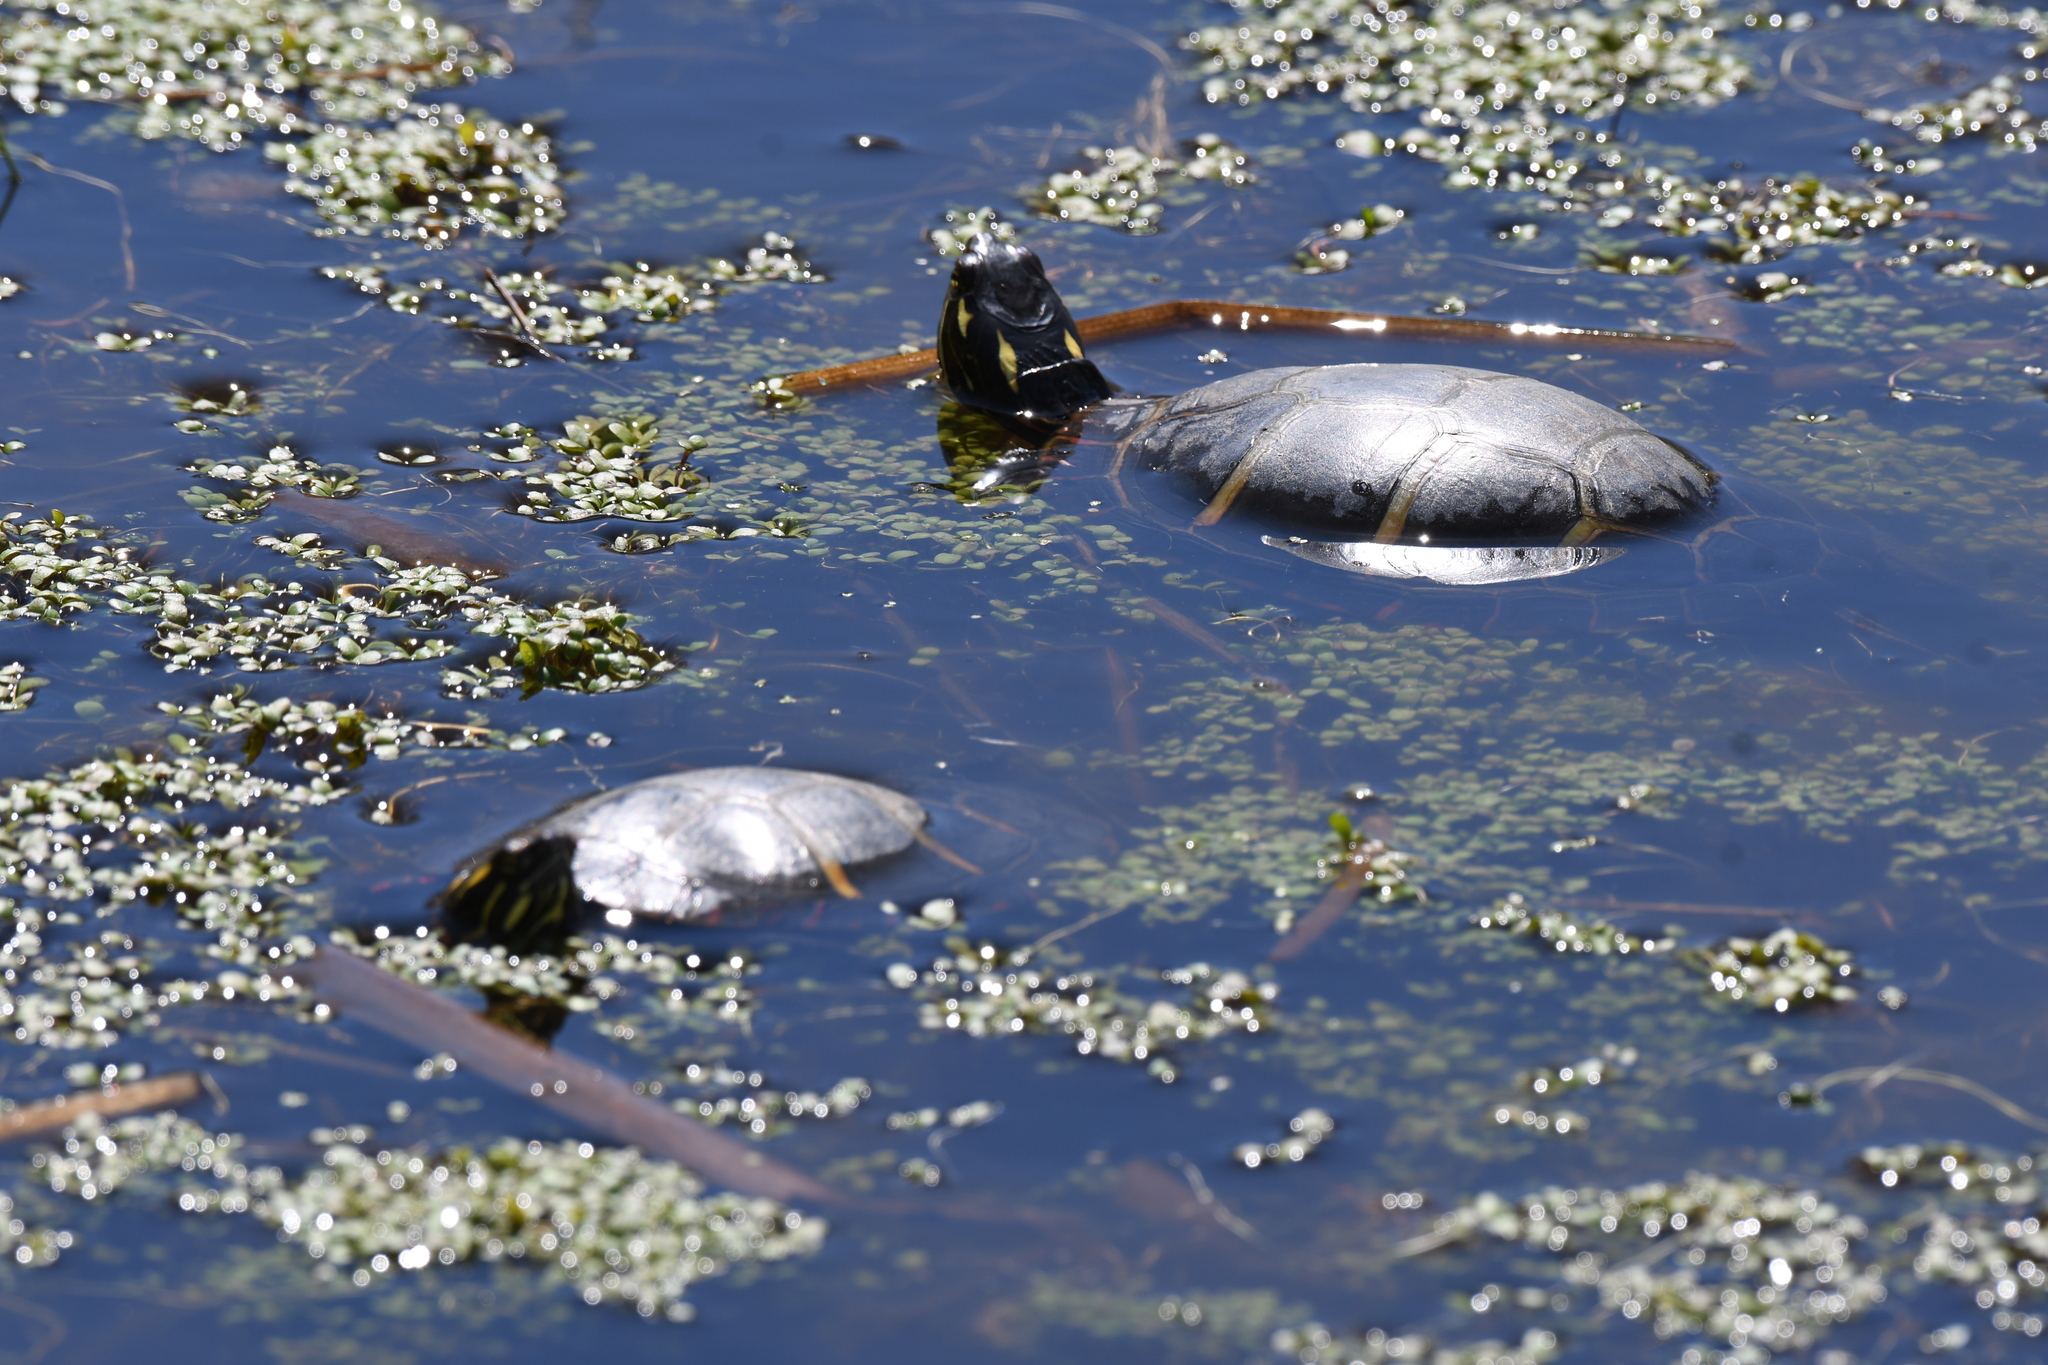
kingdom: Animalia
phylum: Chordata
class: Testudines
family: Emydidae
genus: Chrysemys
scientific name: Chrysemys picta
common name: Painted turtle
